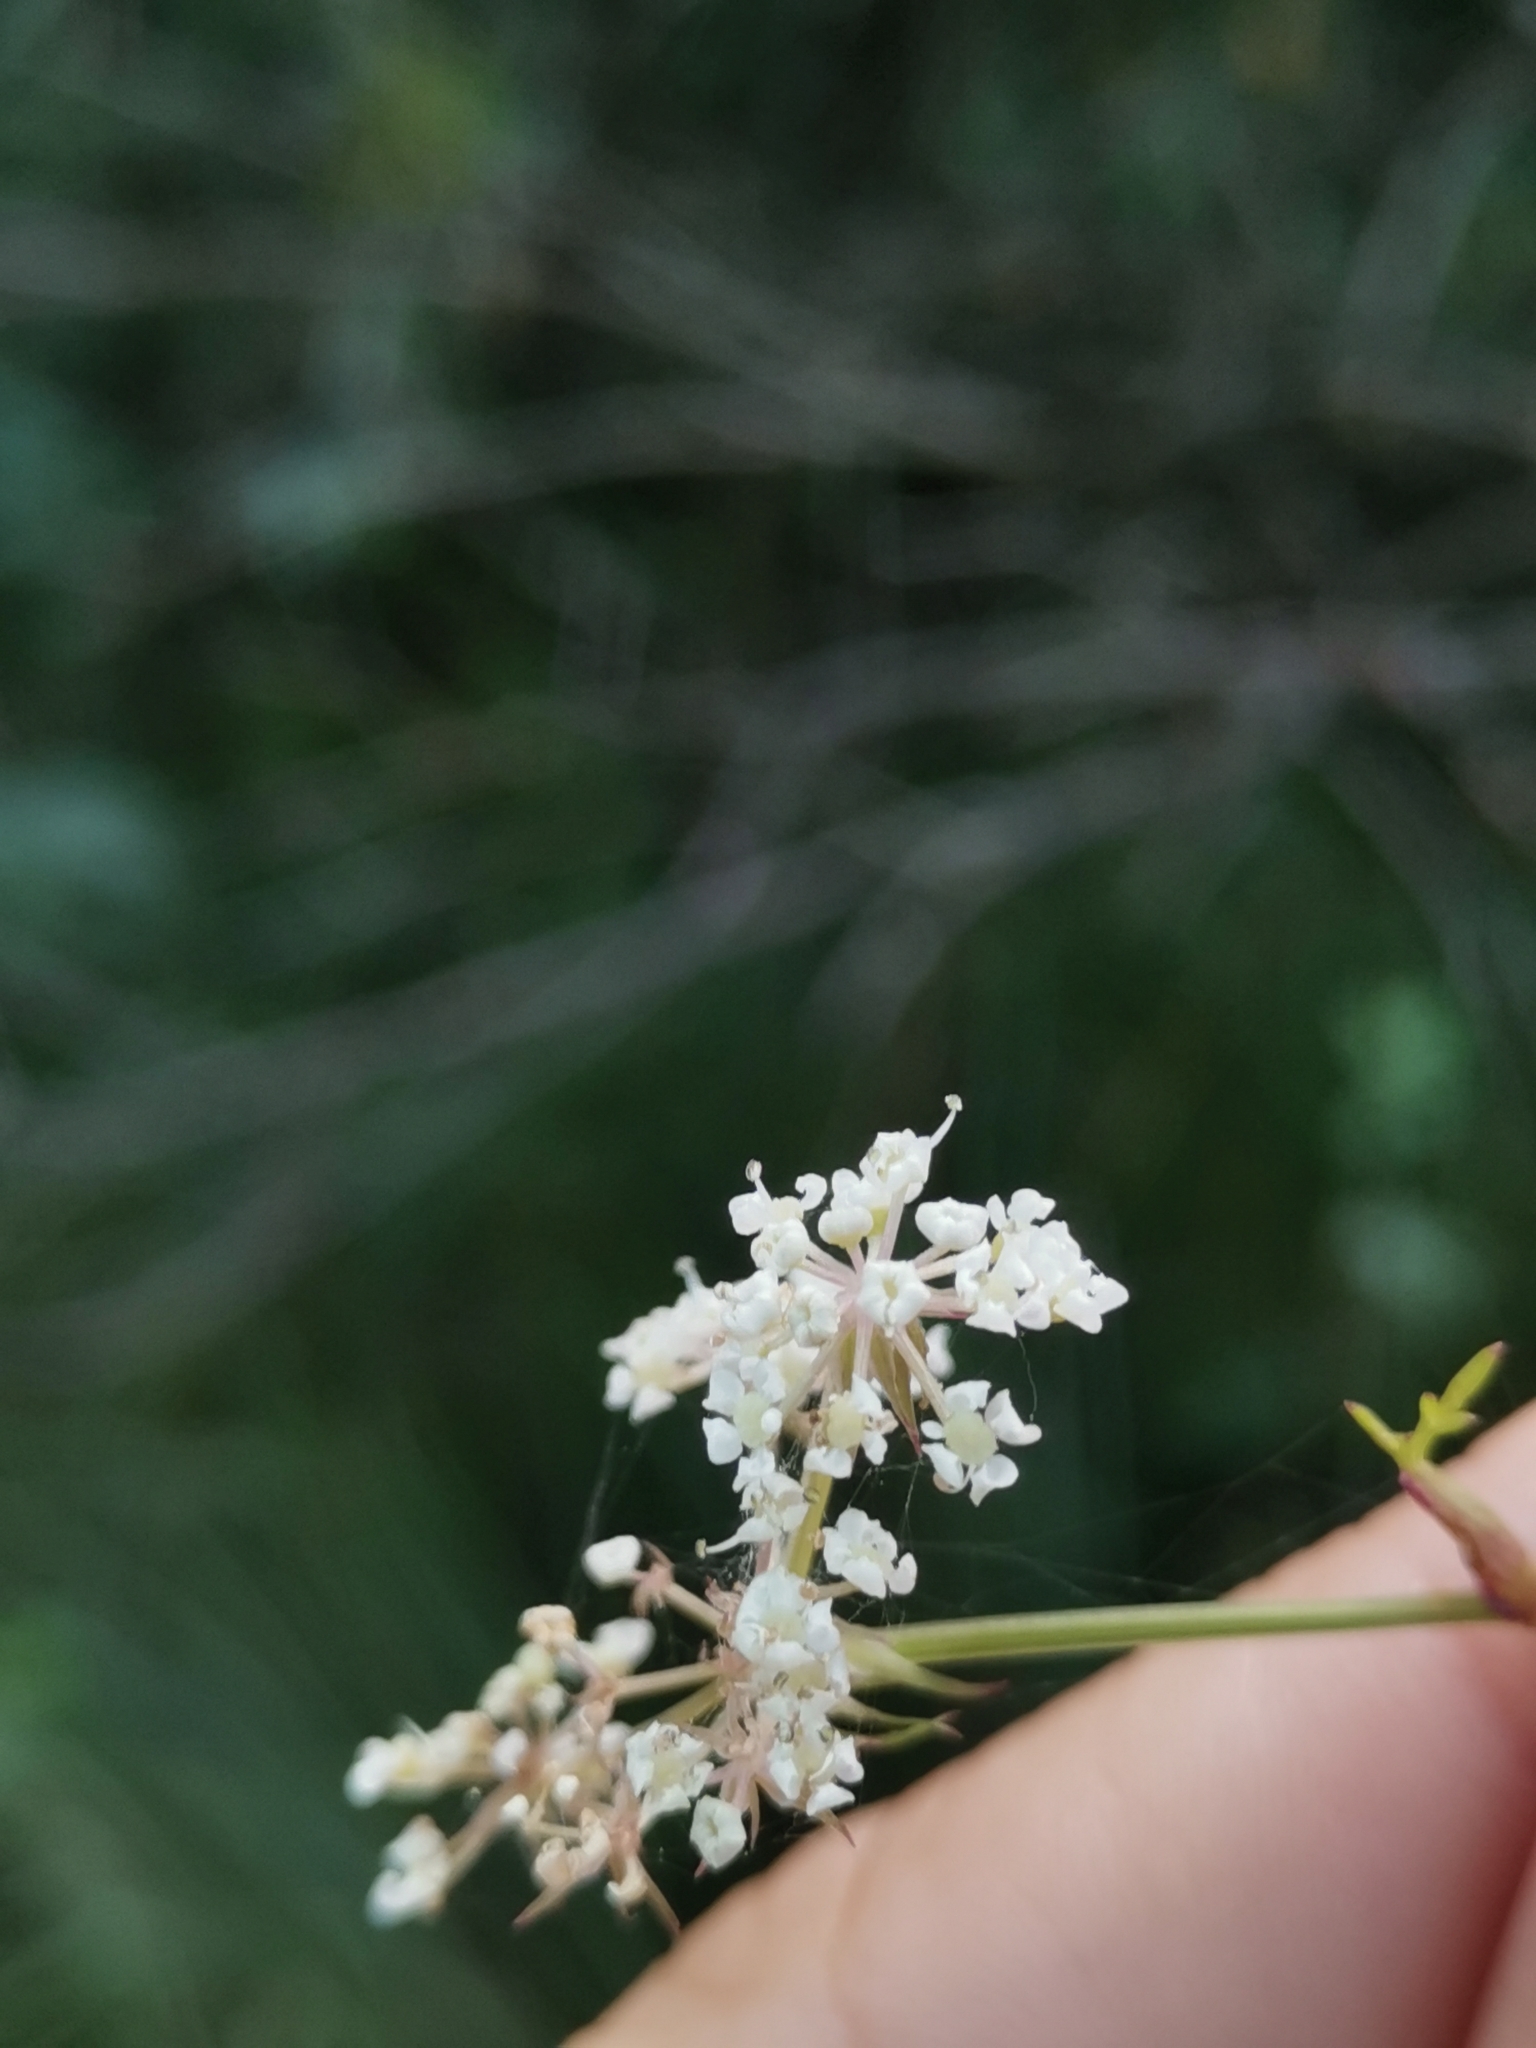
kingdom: Plantae
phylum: Tracheophyta
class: Magnoliopsida
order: Apiales
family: Apiaceae
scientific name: Apiaceae
